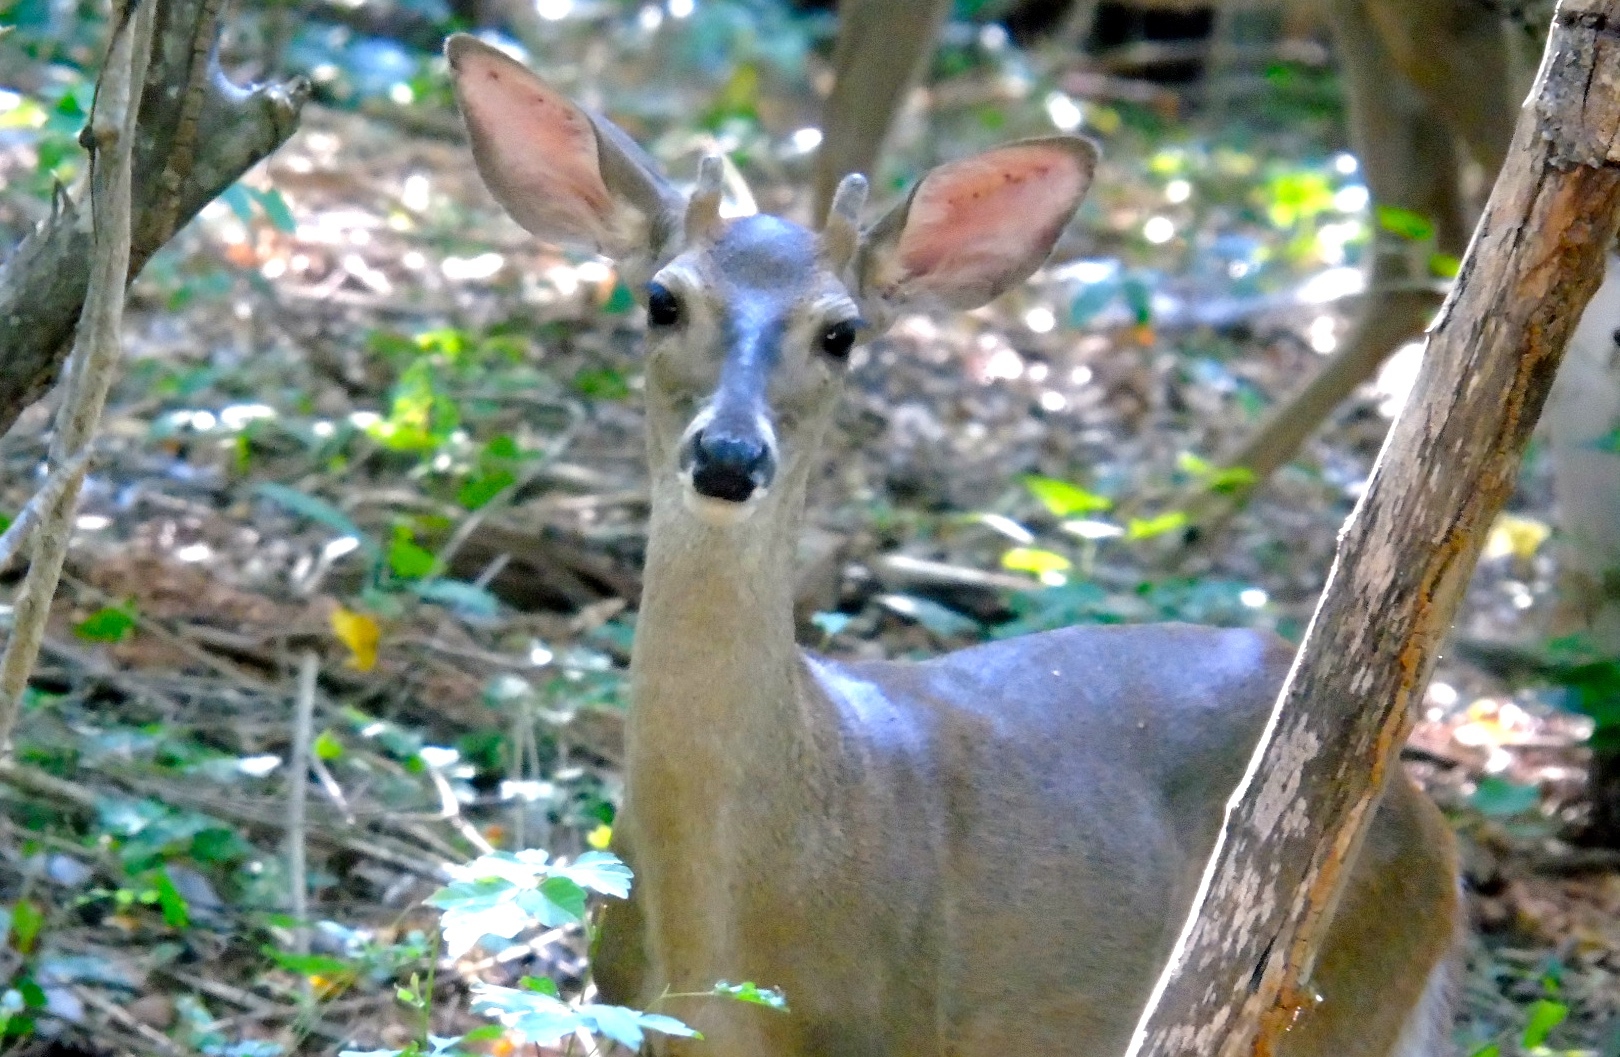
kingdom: Animalia
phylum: Chordata
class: Mammalia
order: Artiodactyla
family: Cervidae
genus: Odocoileus
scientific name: Odocoileus virginianus
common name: White-tailed deer
